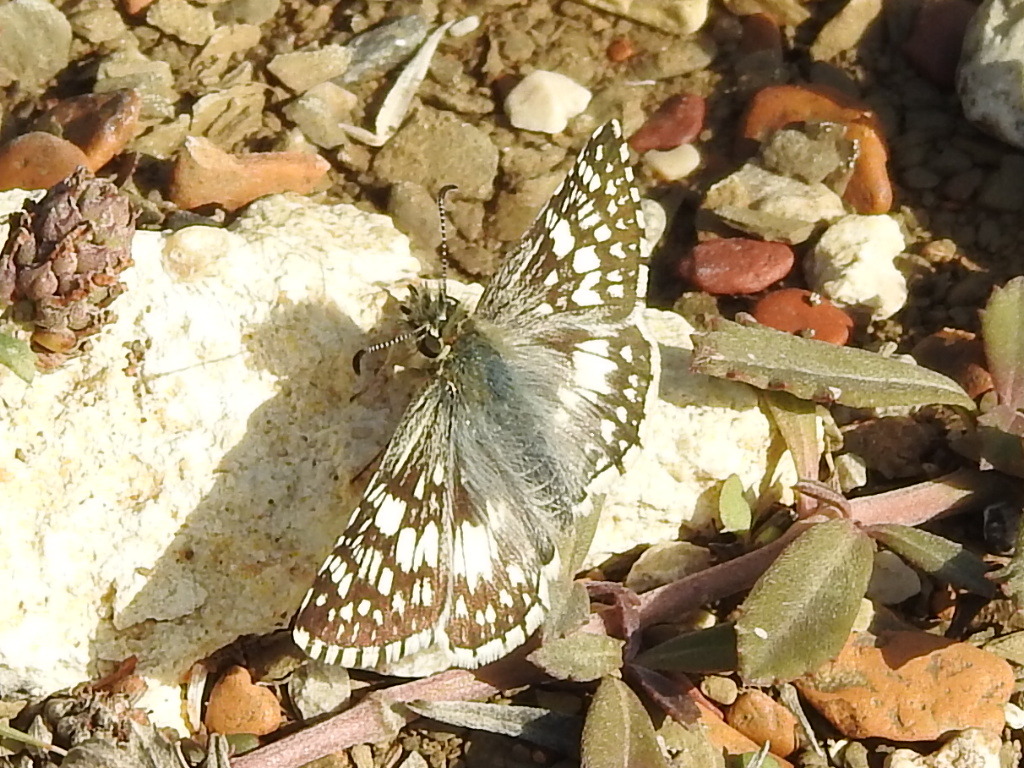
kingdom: Animalia
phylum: Arthropoda
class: Insecta
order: Lepidoptera
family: Hesperiidae
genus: Burnsius
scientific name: Burnsius
